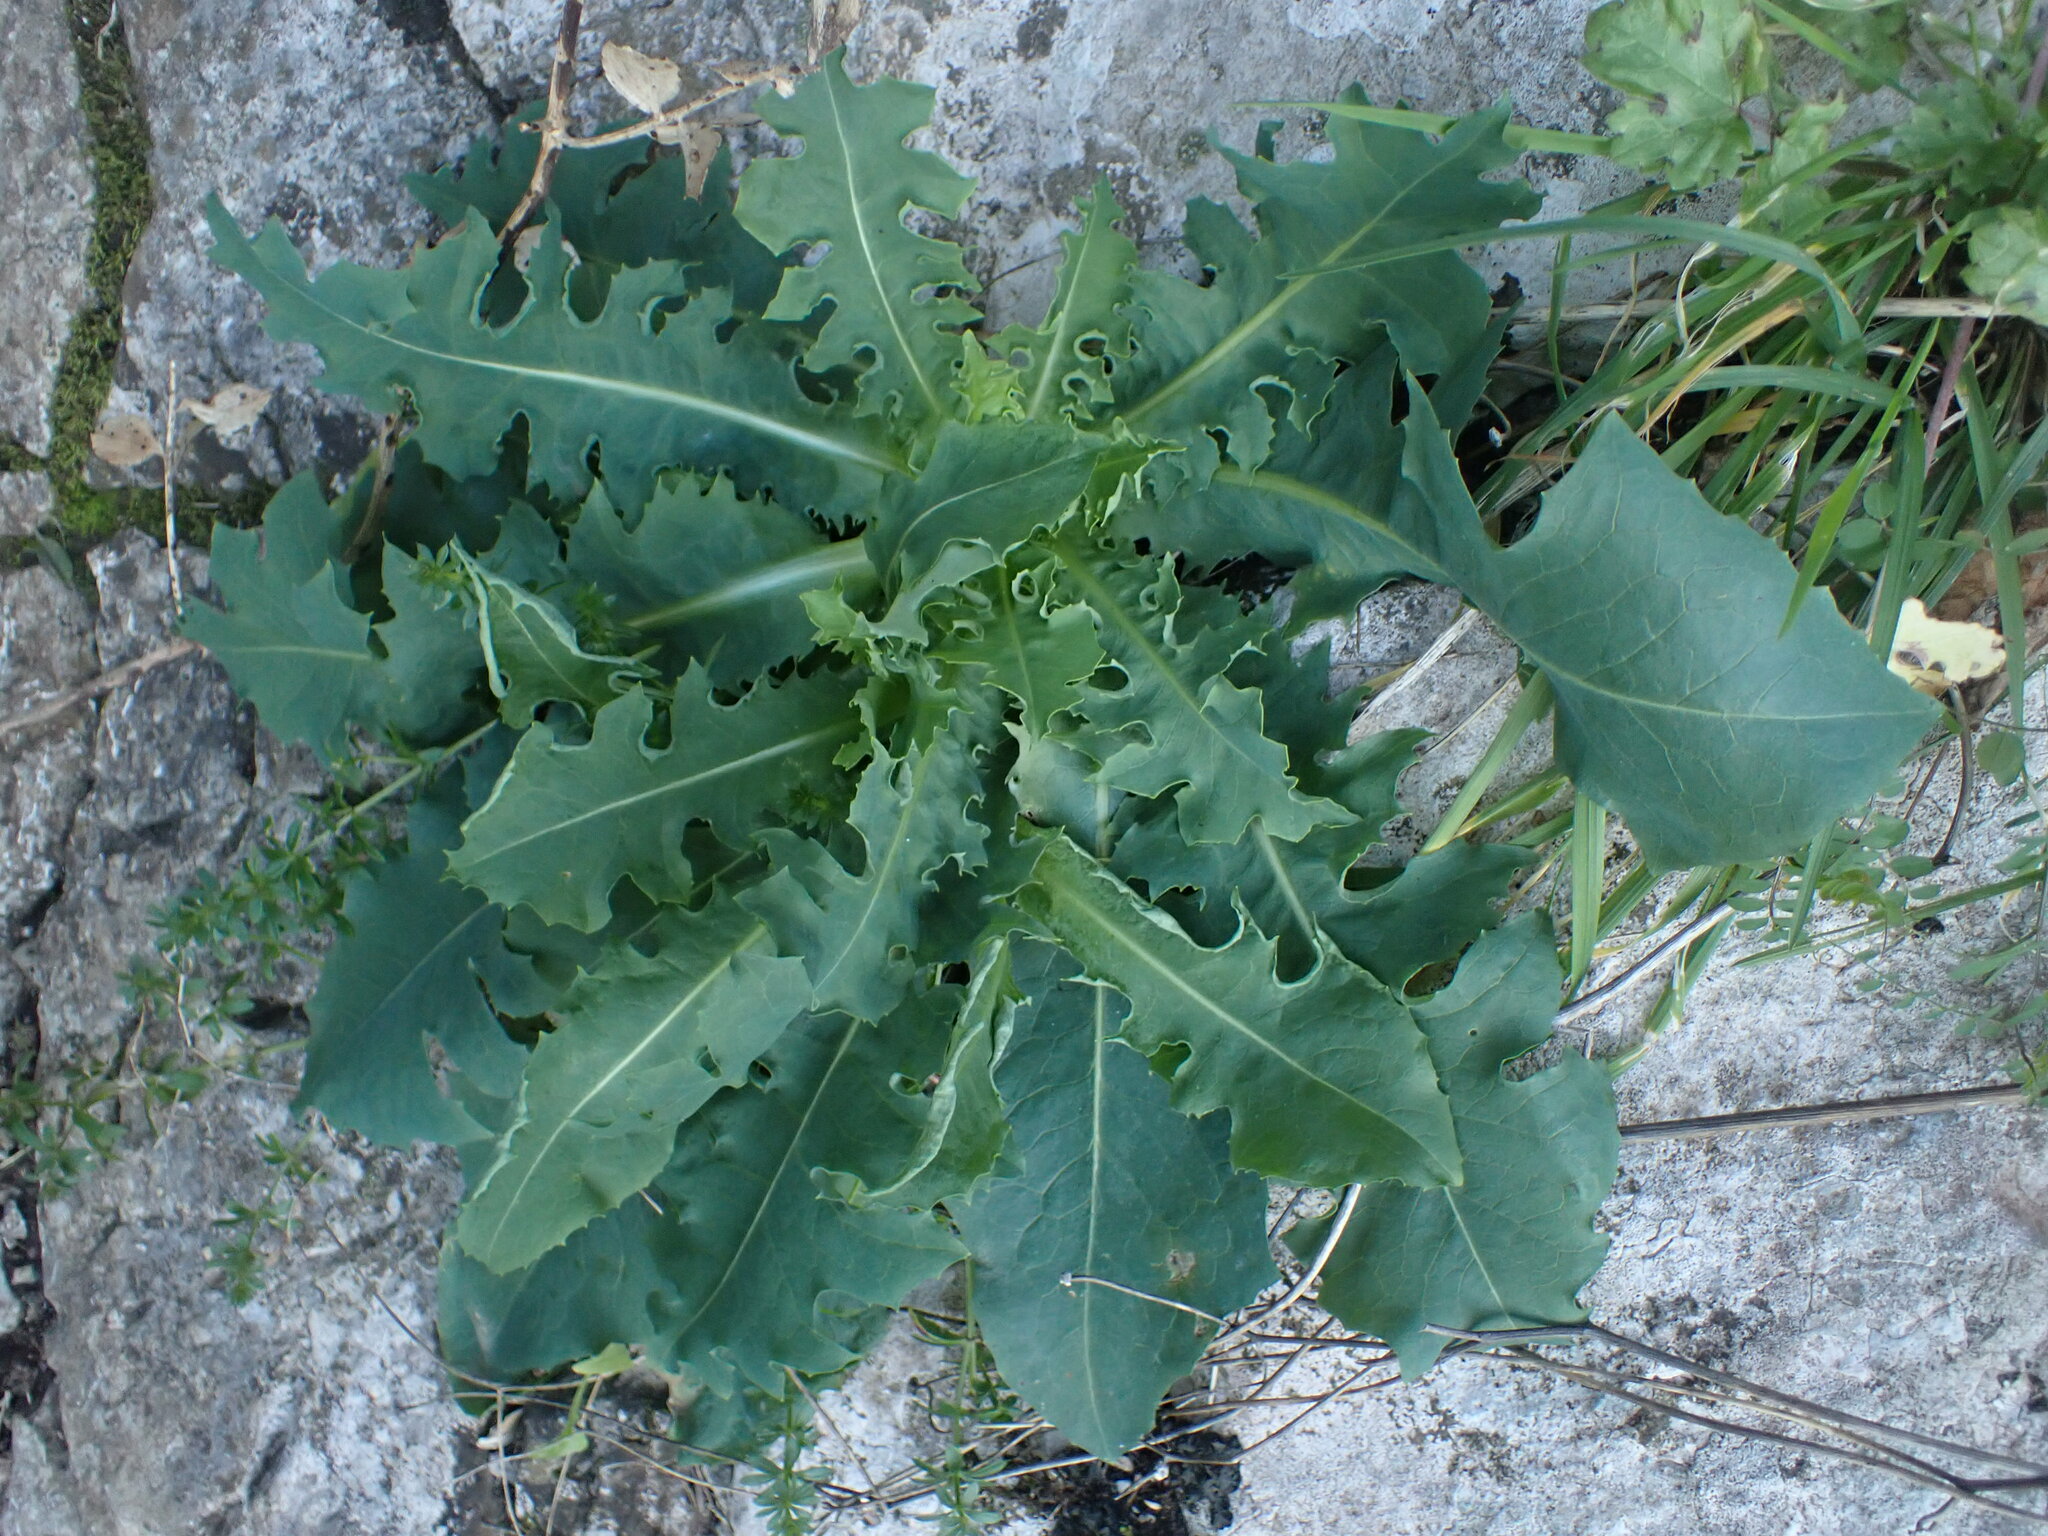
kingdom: Plantae
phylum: Tracheophyta
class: Magnoliopsida
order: Asterales
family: Asteraceae
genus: Lactuca
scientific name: Lactuca perennis
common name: Mountain lettuce
